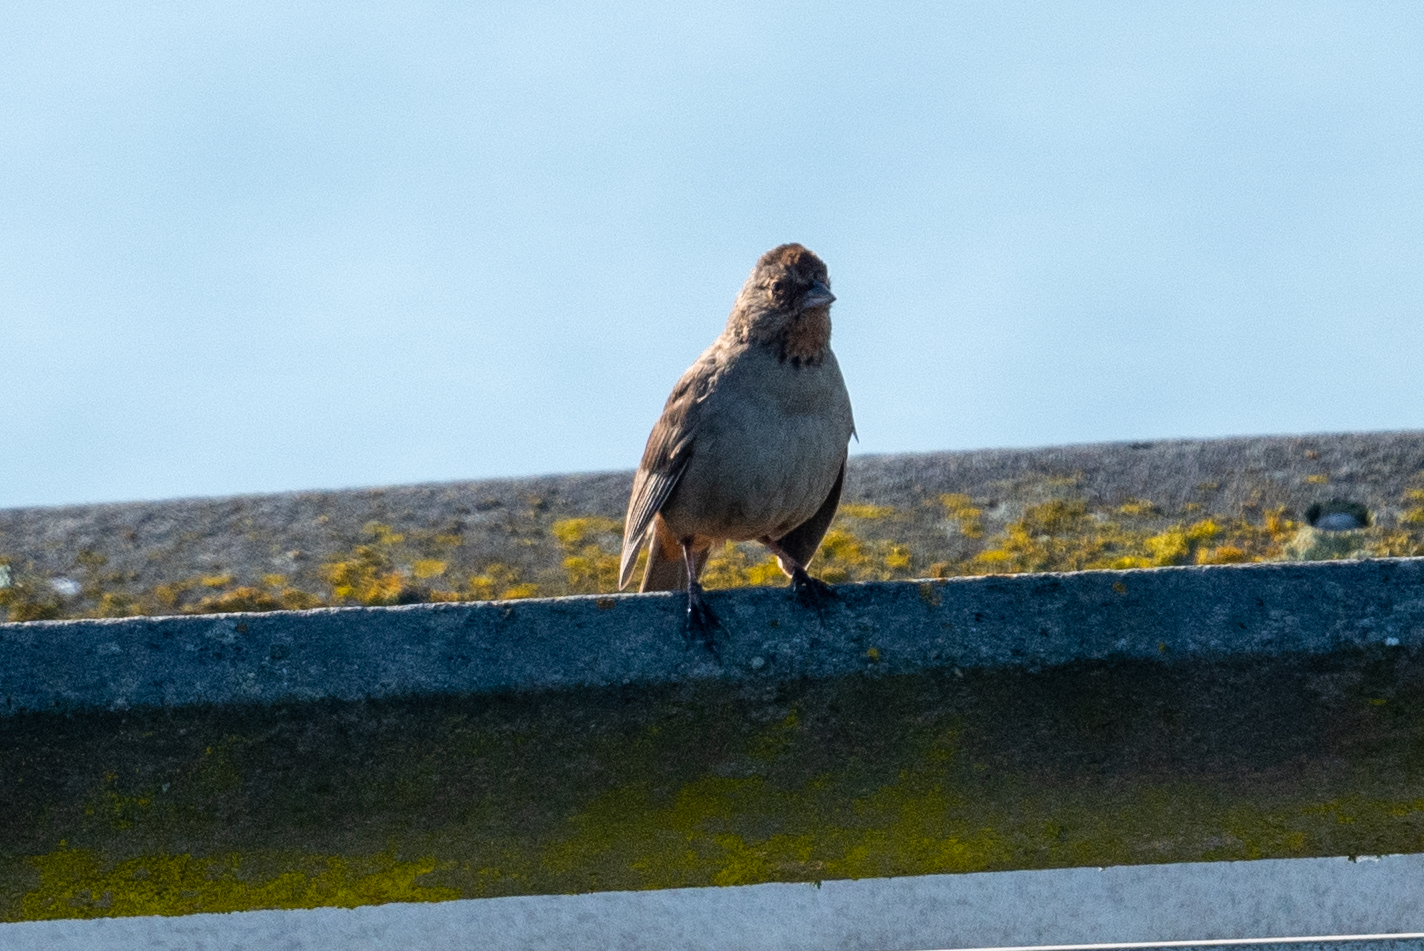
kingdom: Animalia
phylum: Chordata
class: Aves
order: Passeriformes
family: Passerellidae
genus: Melozone
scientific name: Melozone crissalis
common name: California towhee
